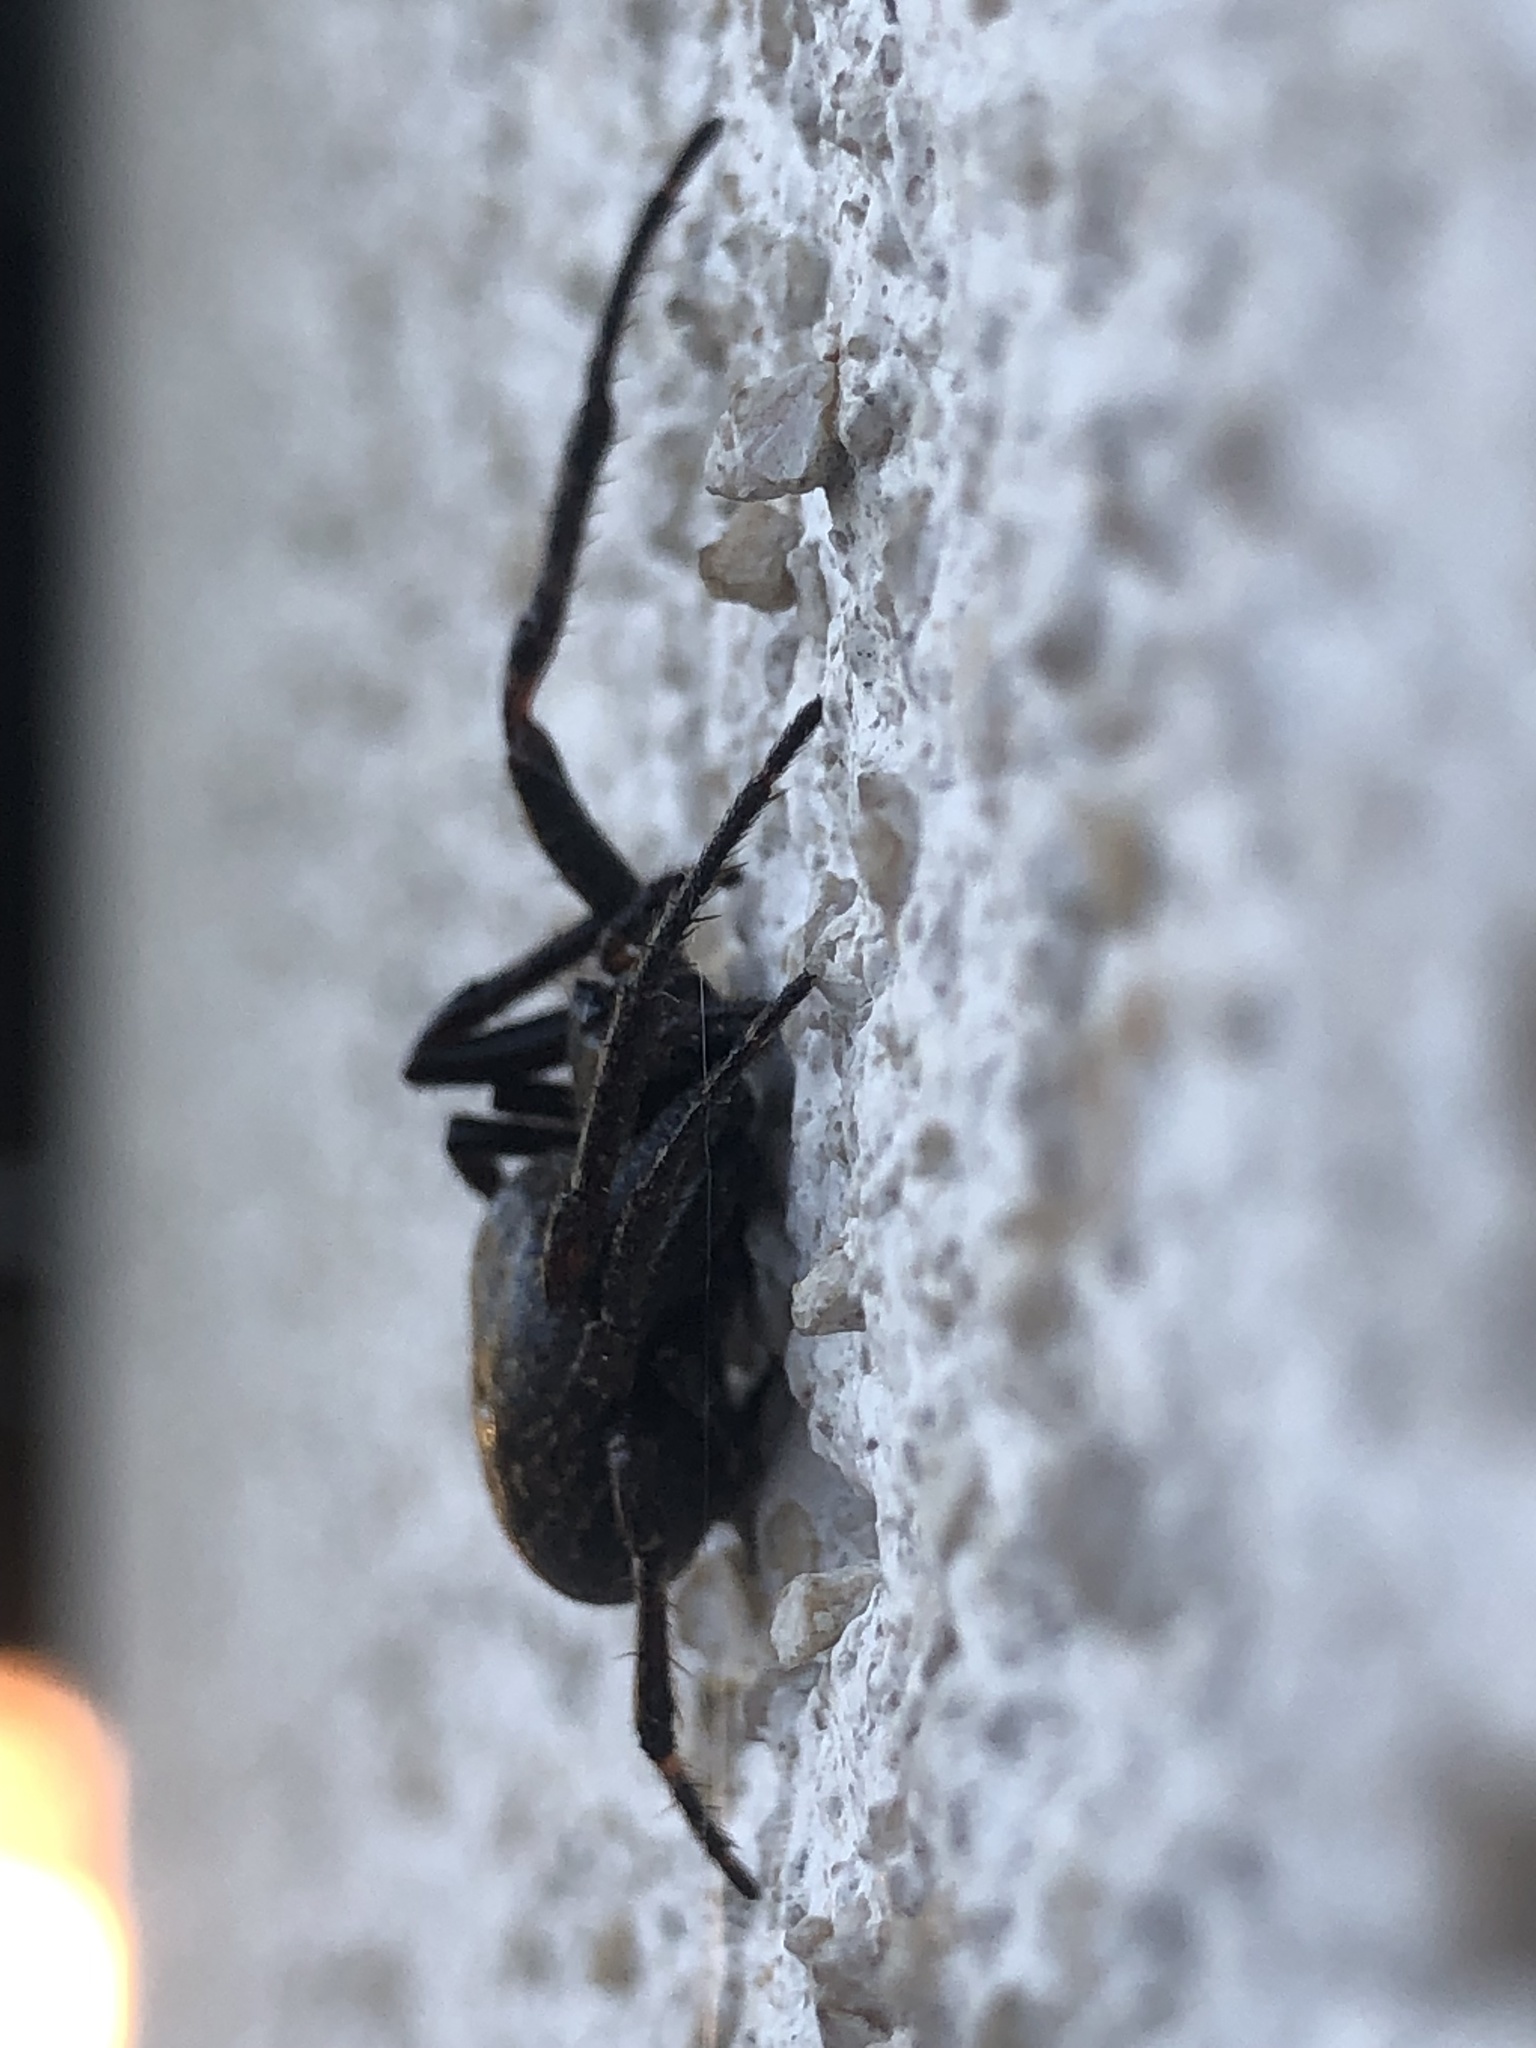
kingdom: Animalia
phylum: Arthropoda
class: Arachnida
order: Araneae
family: Araneidae
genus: Nuctenea
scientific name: Nuctenea umbratica
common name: Toad spider
